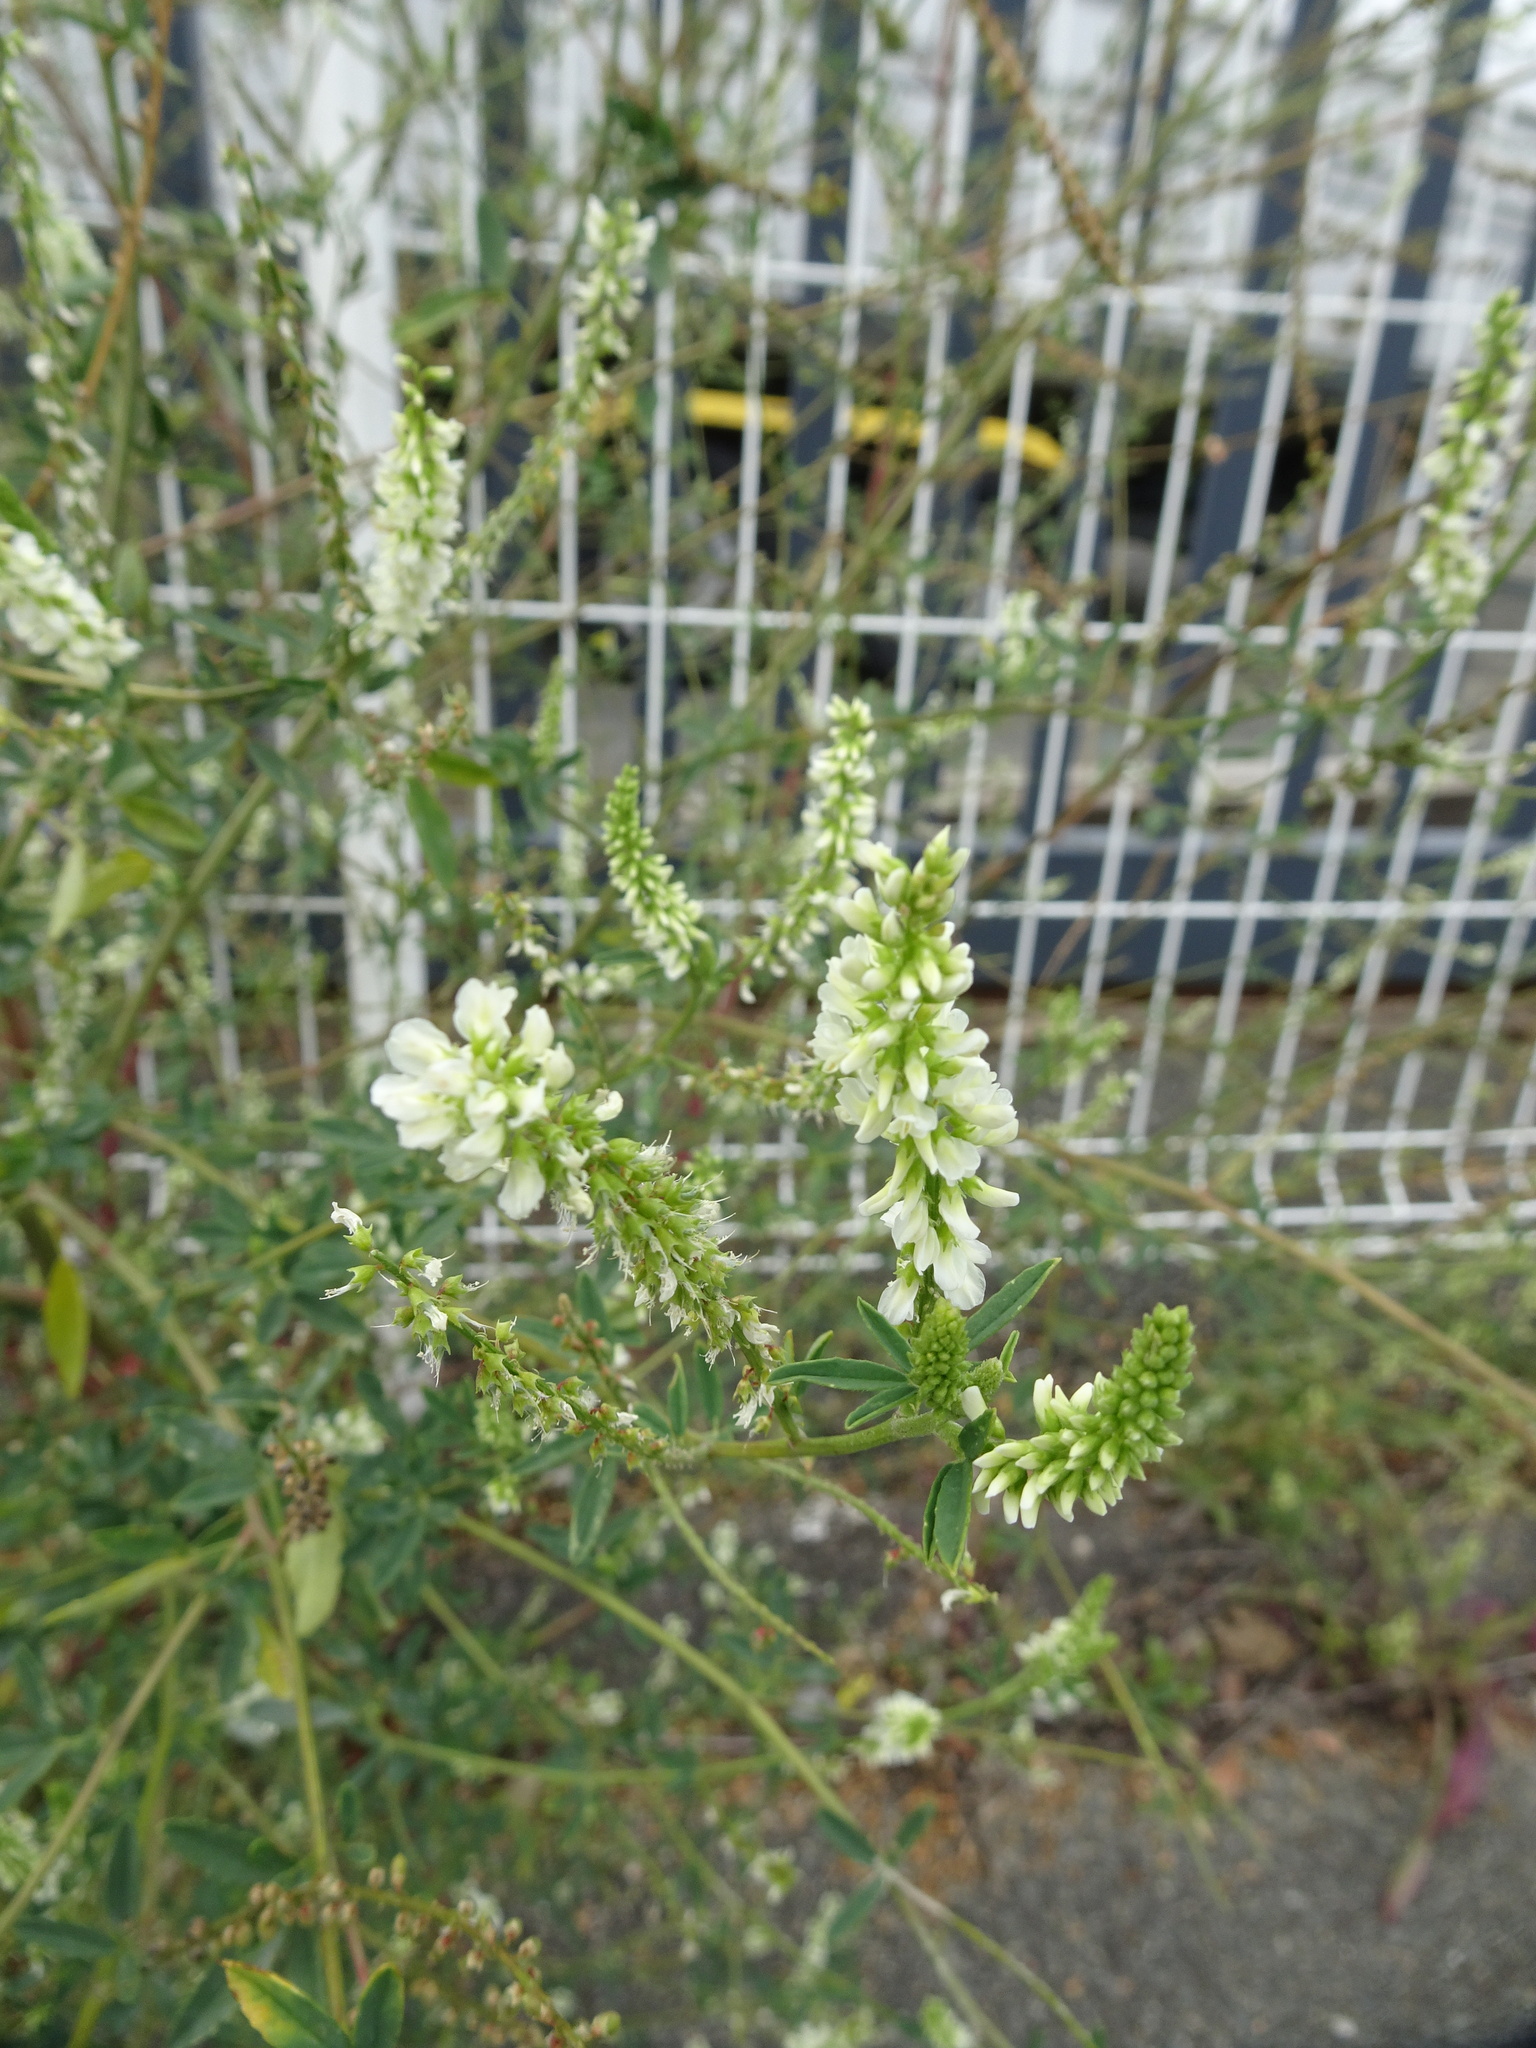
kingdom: Plantae
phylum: Tracheophyta
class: Magnoliopsida
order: Fabales
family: Fabaceae
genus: Melilotus
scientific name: Melilotus albus
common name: White melilot
